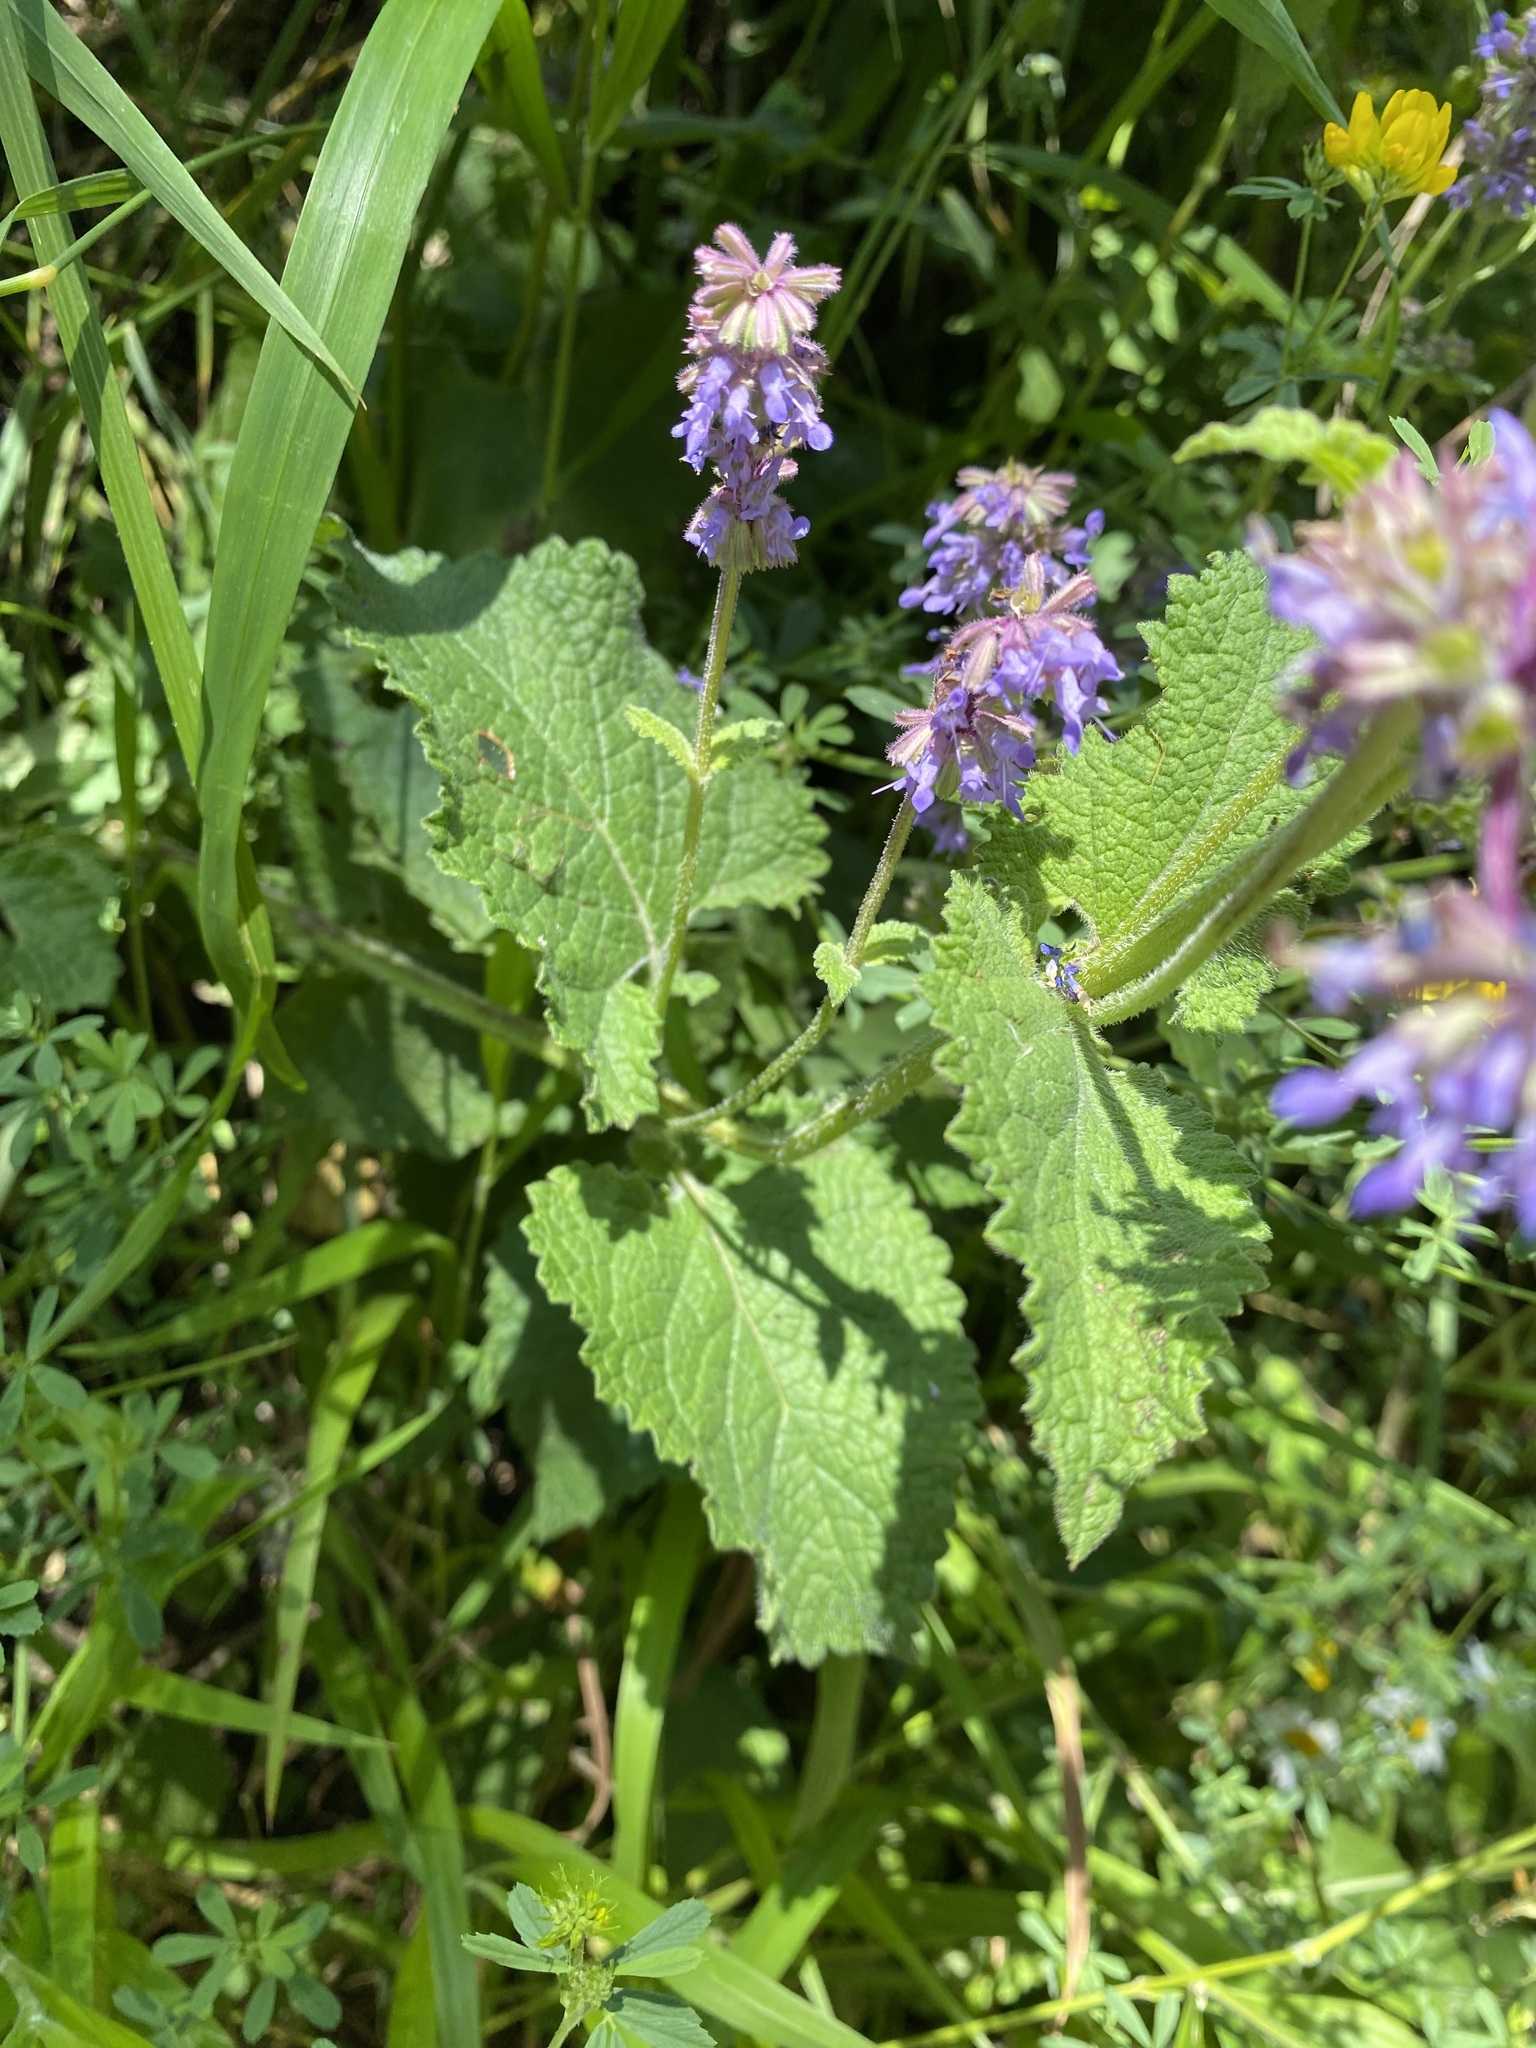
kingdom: Plantae
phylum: Tracheophyta
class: Magnoliopsida
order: Lamiales
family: Lamiaceae
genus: Salvia
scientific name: Salvia verticillata
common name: Whorled clary
